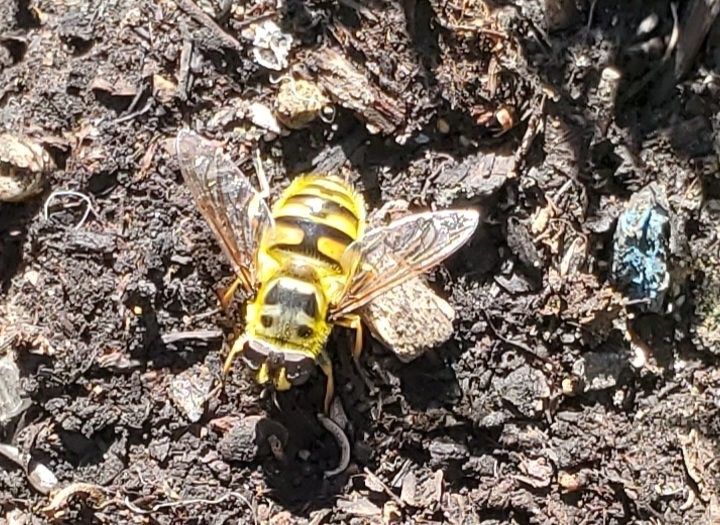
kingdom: Animalia
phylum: Arthropoda
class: Insecta
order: Diptera
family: Syrphidae
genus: Myathropa
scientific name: Myathropa florea
